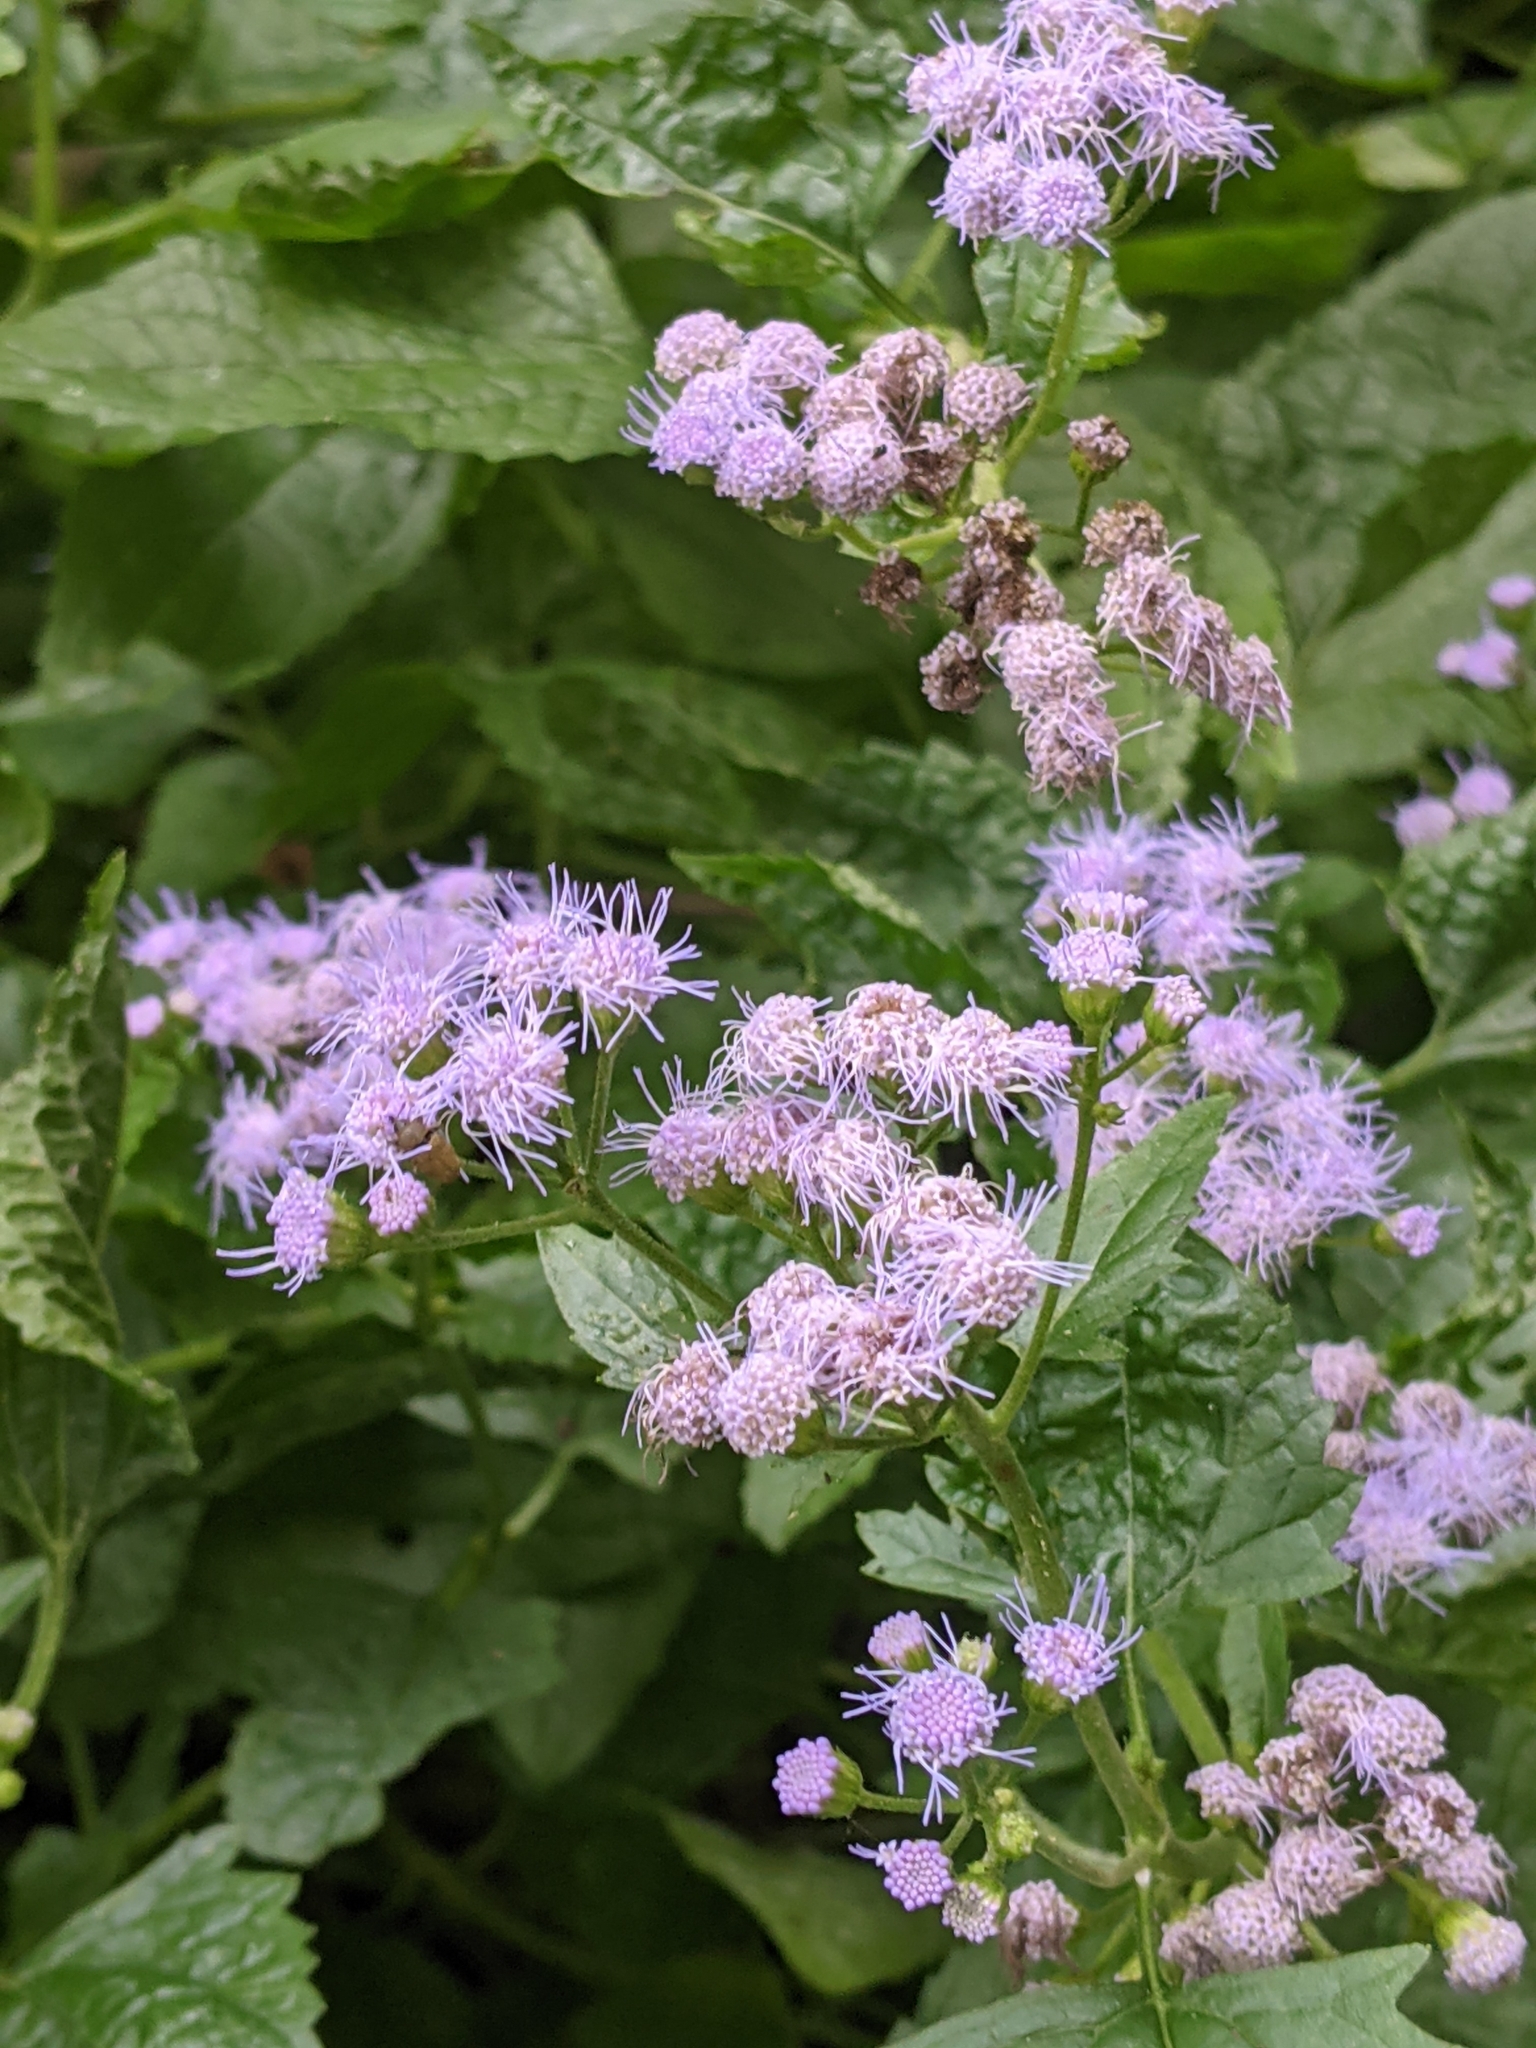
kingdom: Plantae
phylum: Tracheophyta
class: Magnoliopsida
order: Asterales
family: Asteraceae
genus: Conoclinium
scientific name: Conoclinium coelestinum
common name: Blue mistflower
